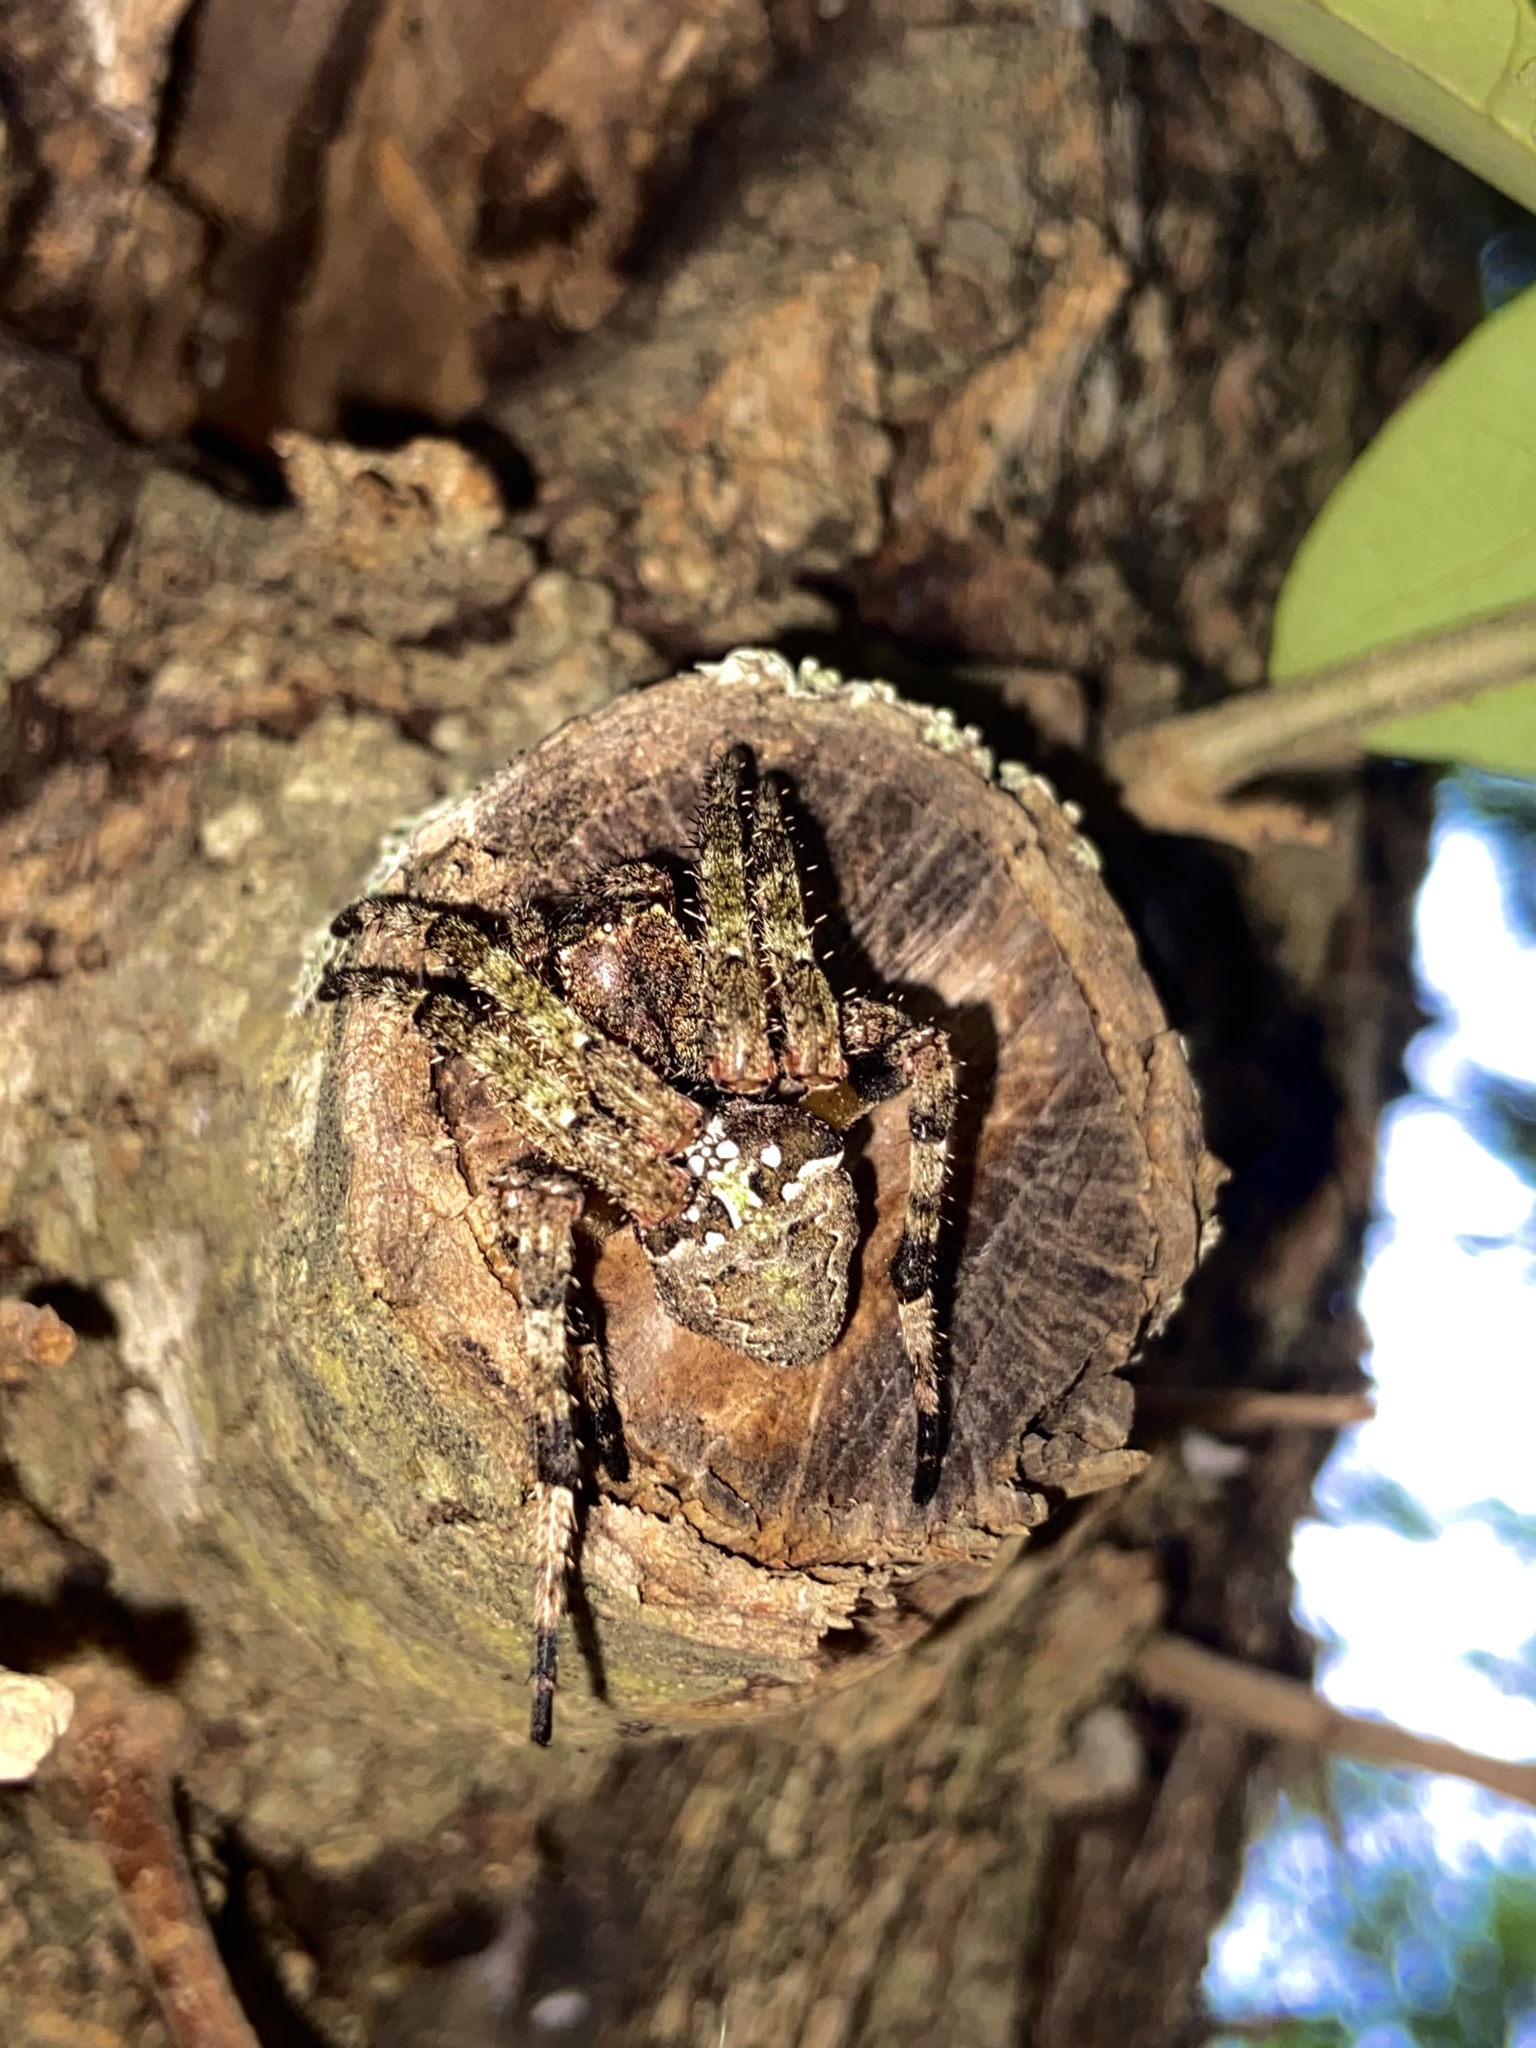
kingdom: Animalia
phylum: Arthropoda
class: Arachnida
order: Araneae
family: Araneidae
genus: Araneus
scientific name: Araneus bicentenarius
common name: Giant lichen orbweaver
